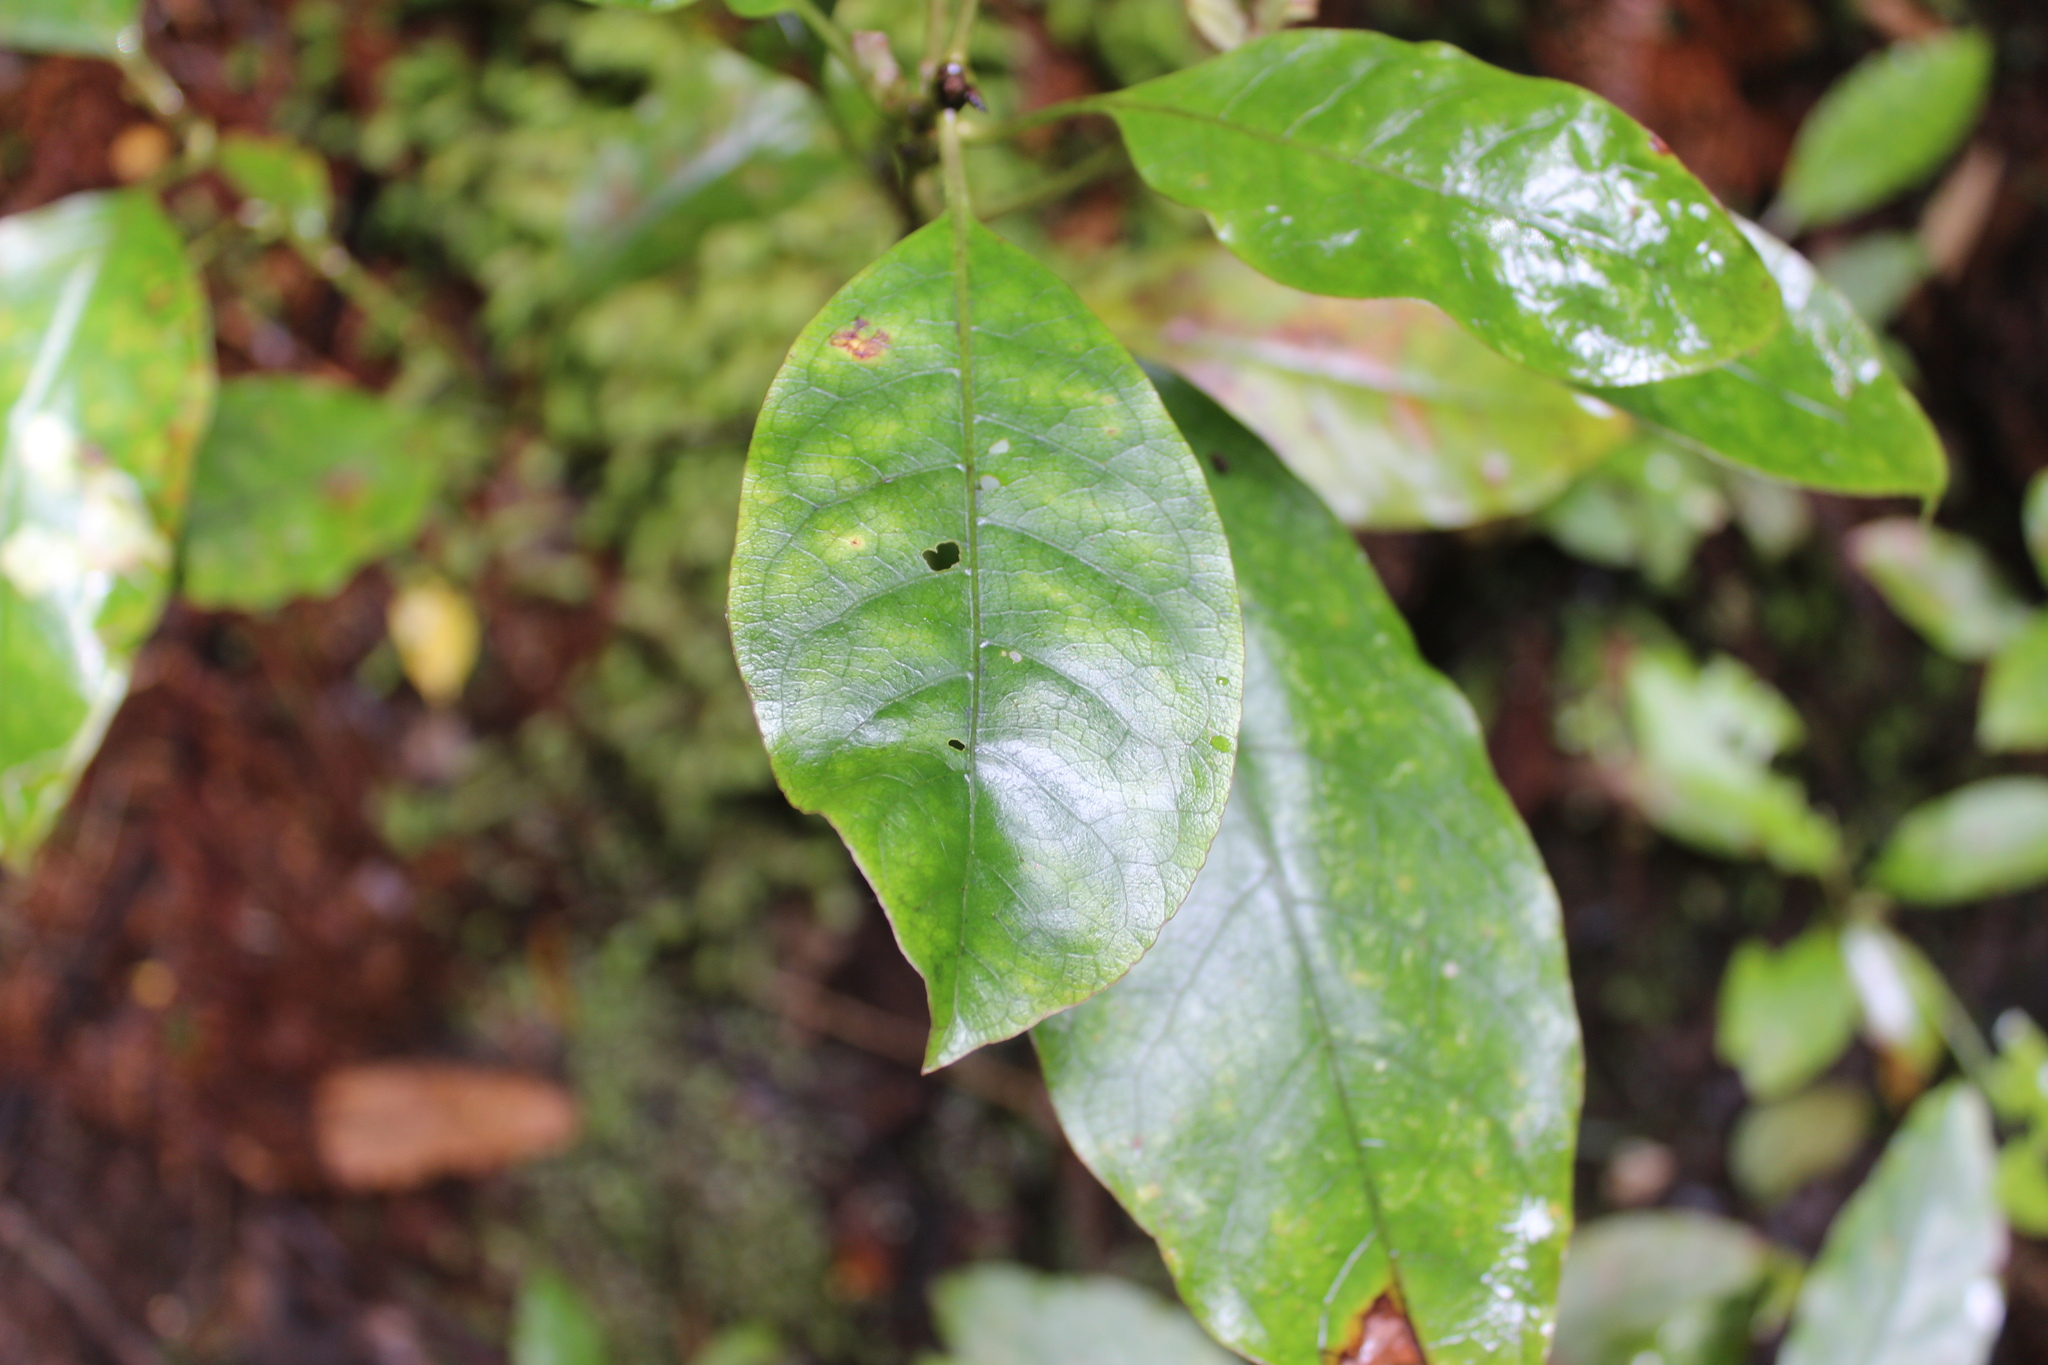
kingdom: Plantae
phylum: Tracheophyta
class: Magnoliopsida
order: Gentianales
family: Rubiaceae
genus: Coprosma
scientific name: Coprosma autumnalis
